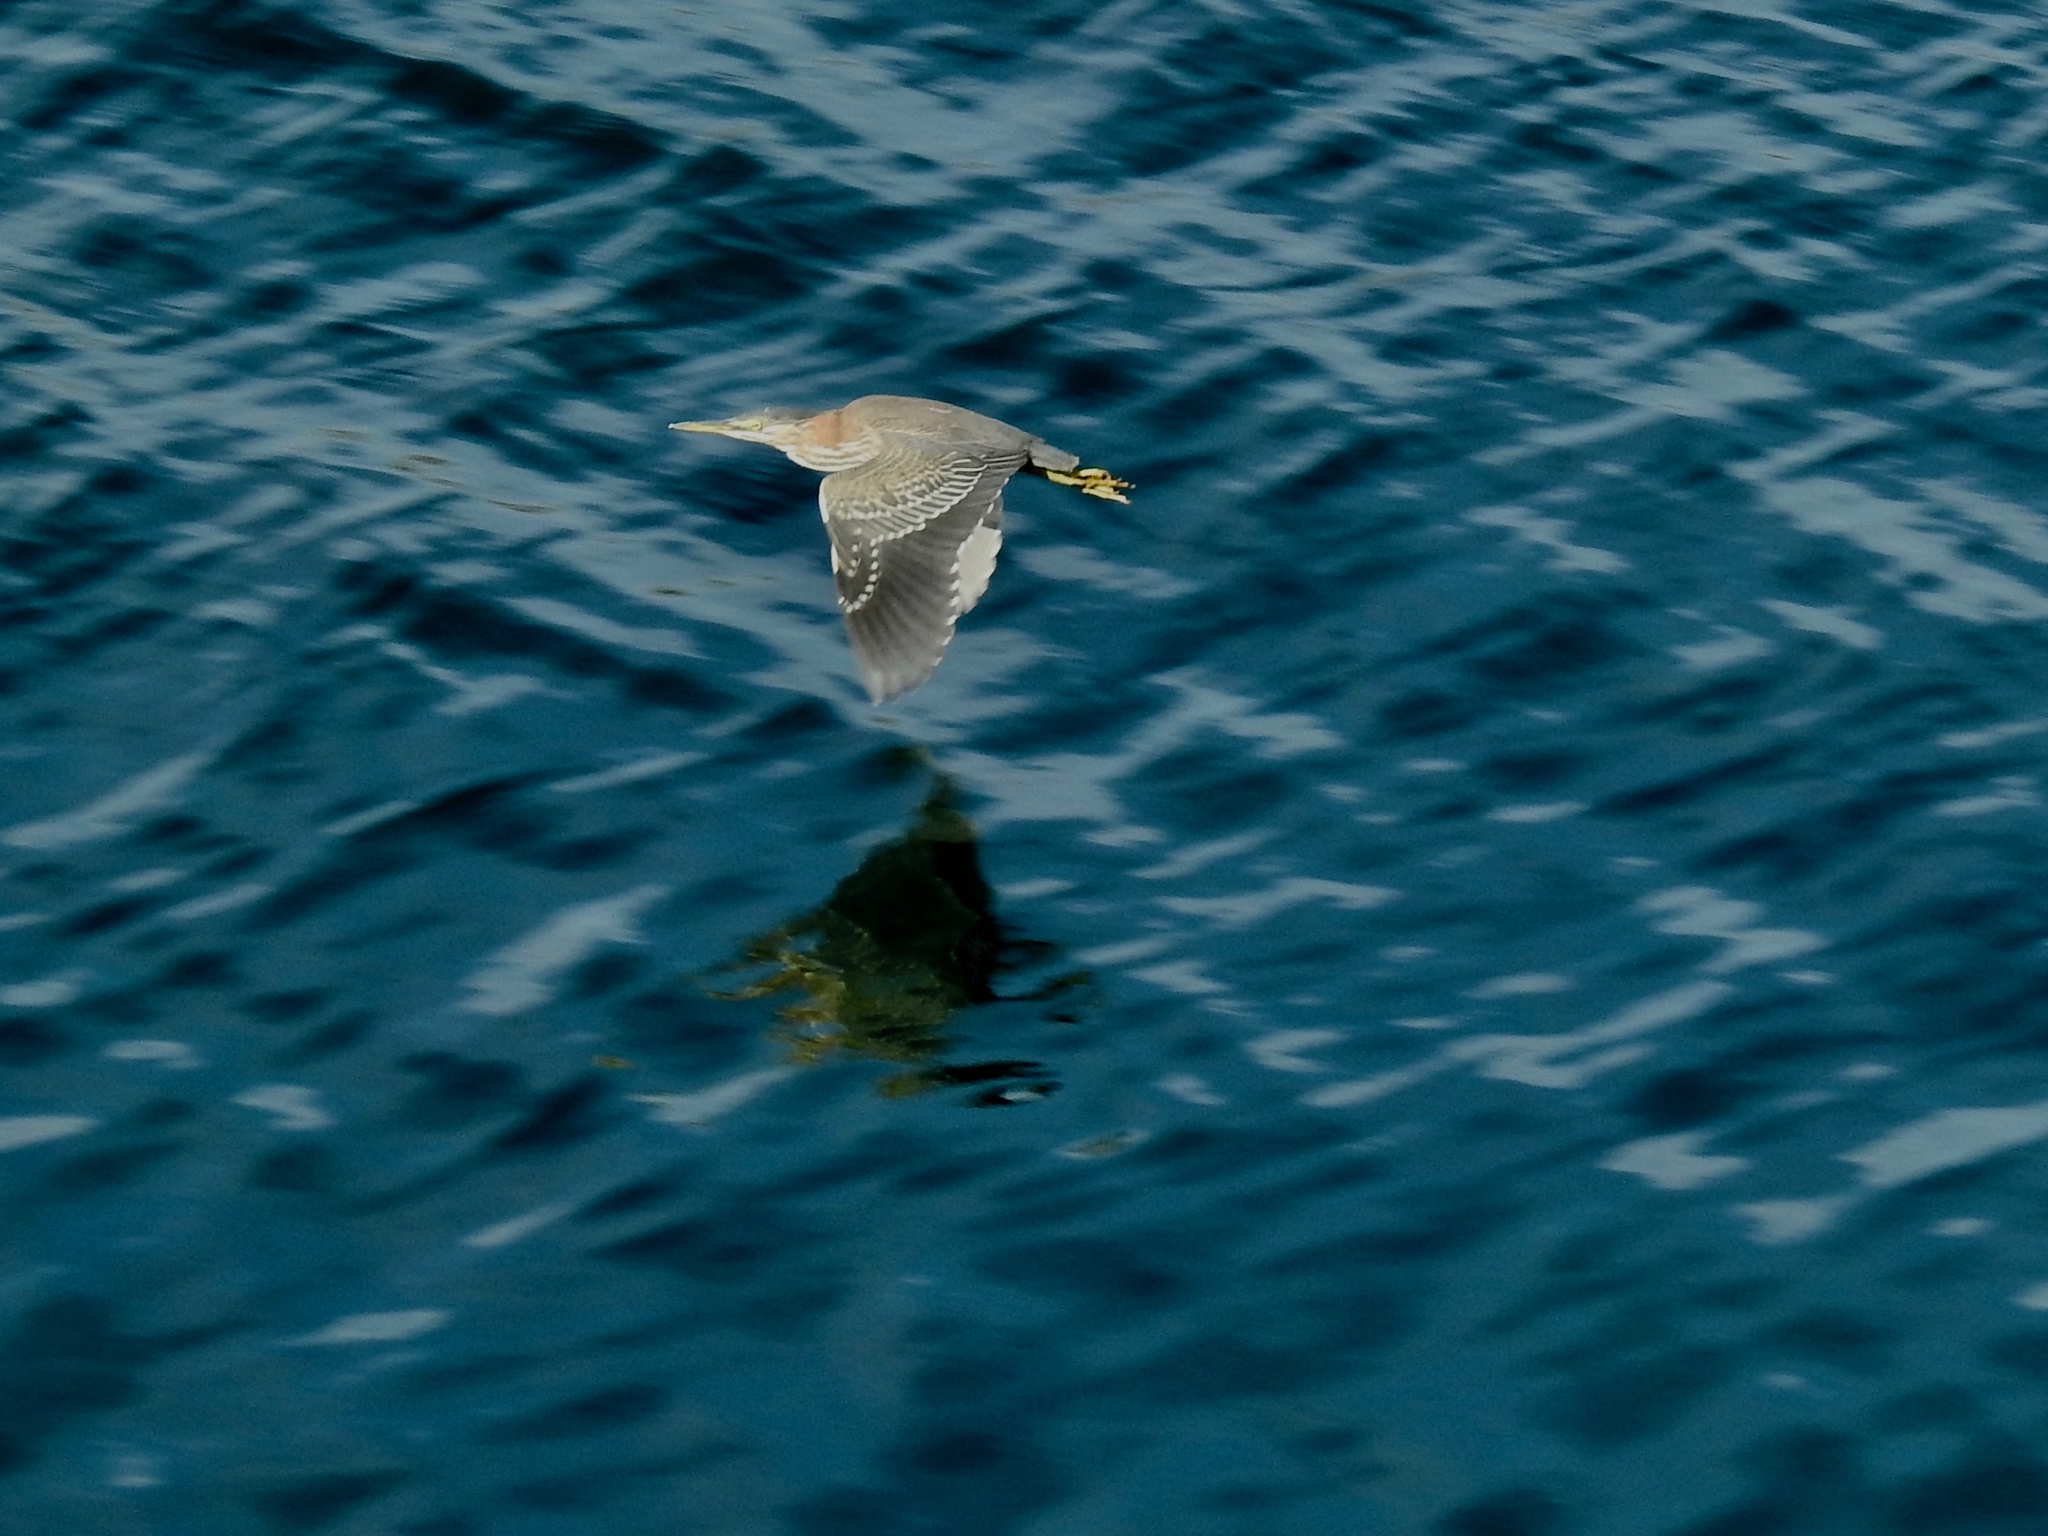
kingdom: Animalia
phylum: Chordata
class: Aves
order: Pelecaniformes
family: Ardeidae
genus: Butorides
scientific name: Butorides virescens
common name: Green heron
